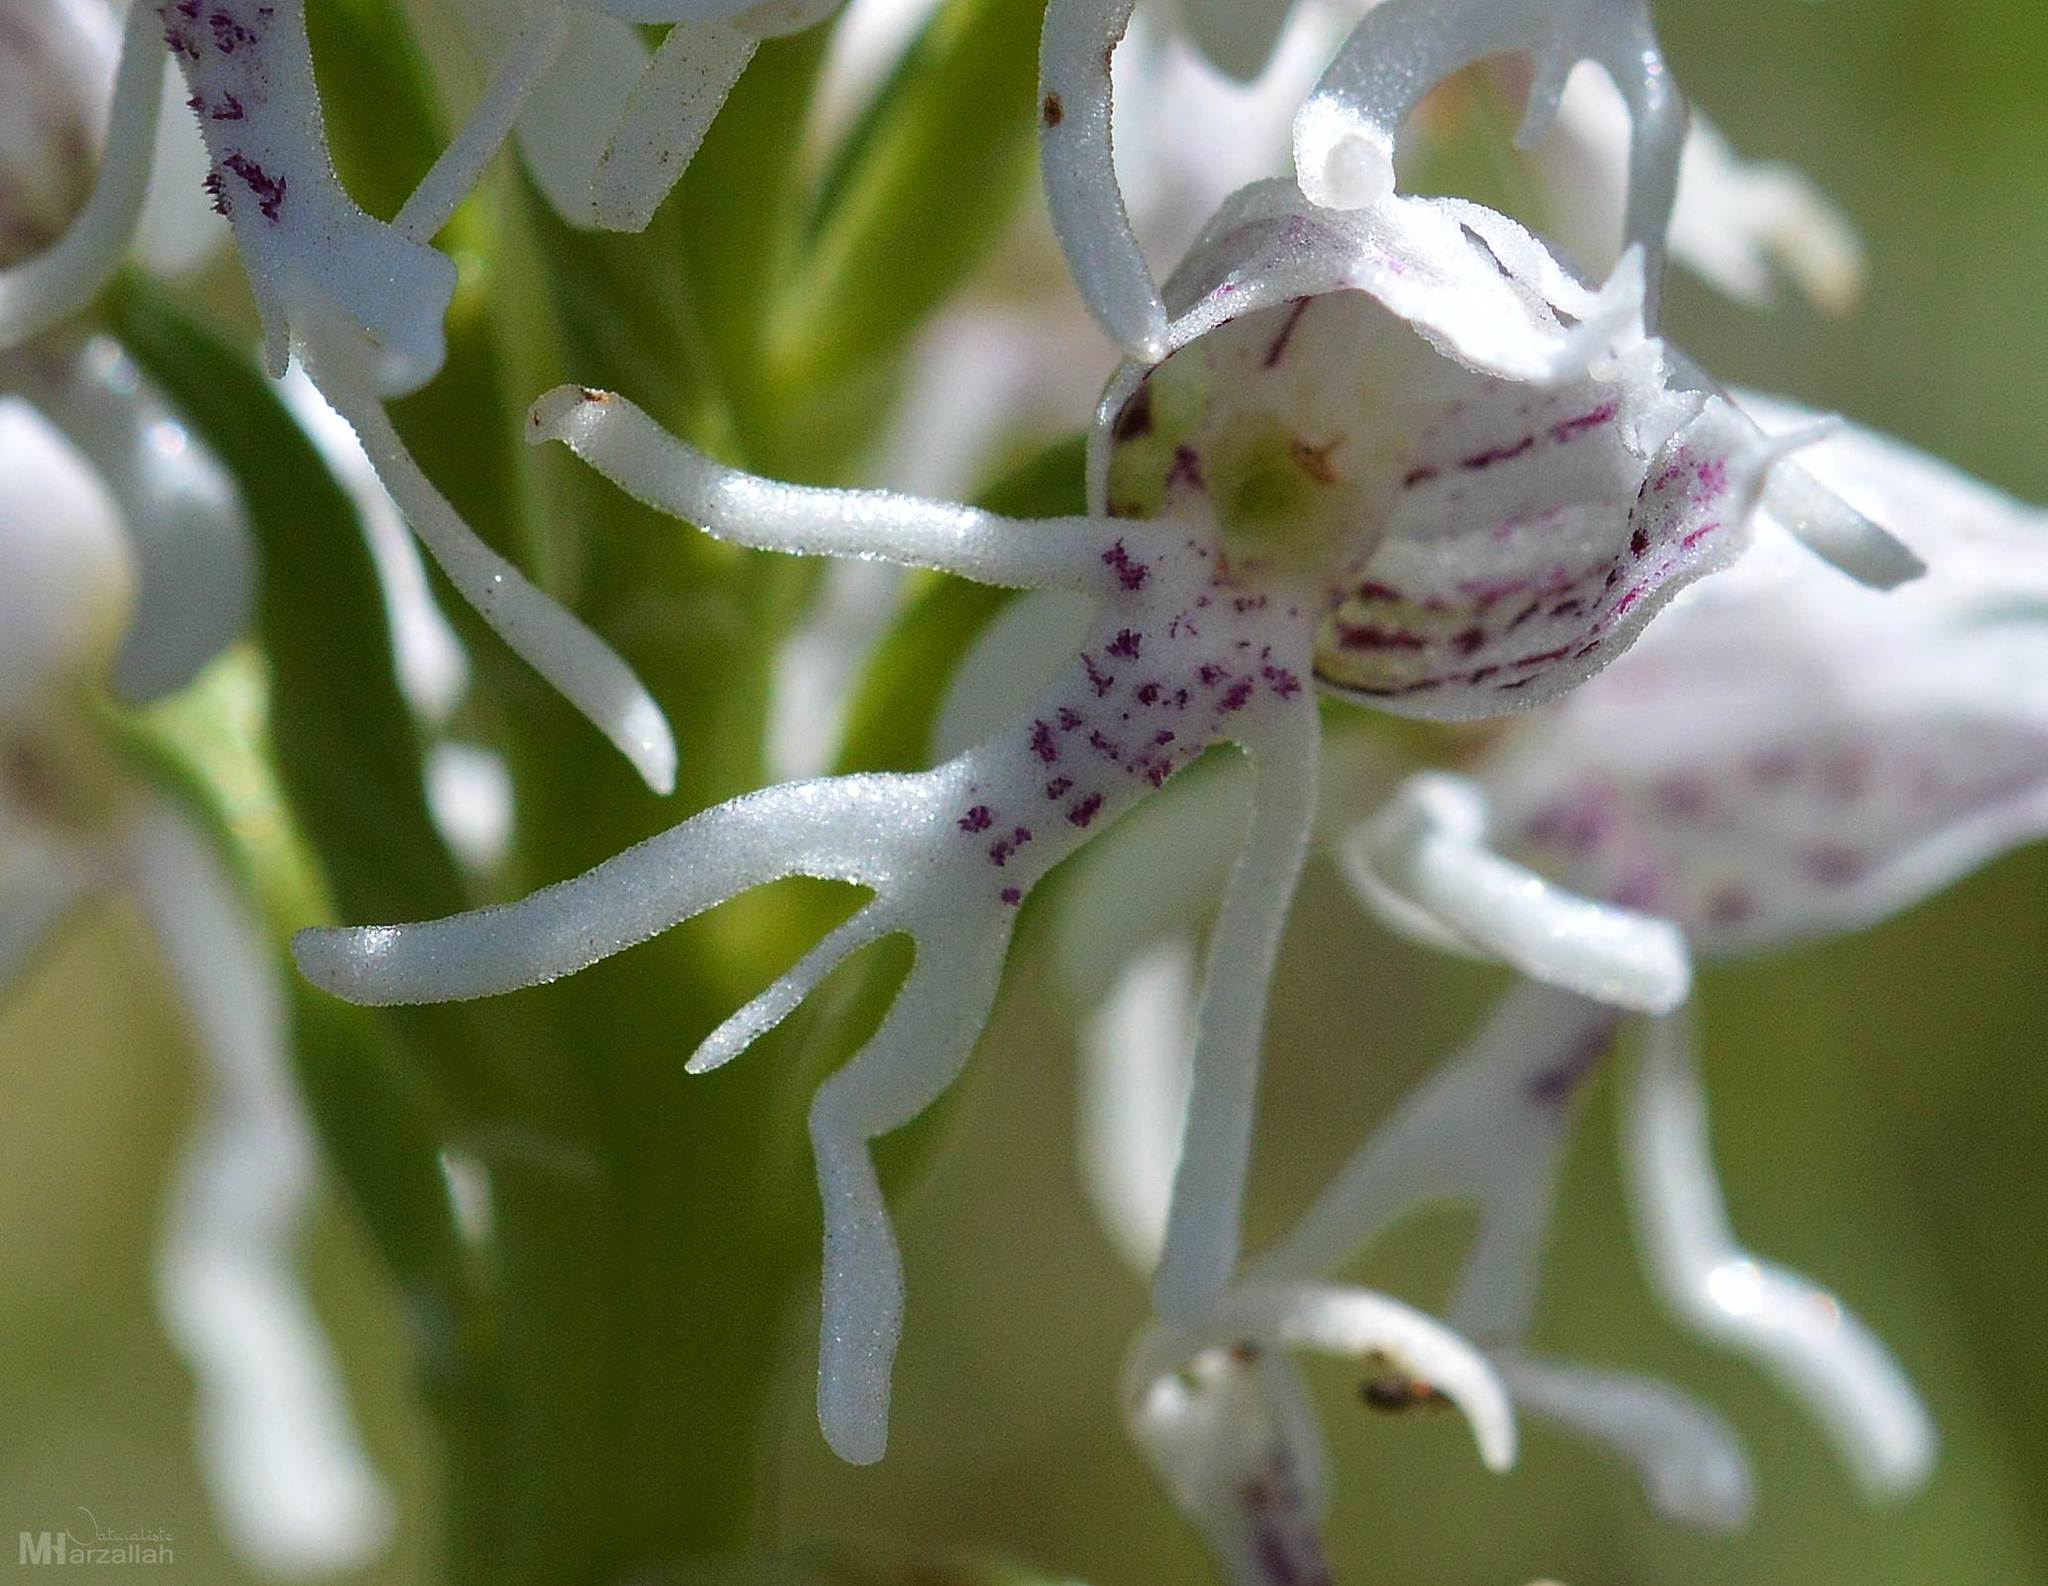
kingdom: Plantae
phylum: Tracheophyta
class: Liliopsida
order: Asparagales
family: Orchidaceae
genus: Orchis
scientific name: Orchis simia
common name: Monkey orchid
